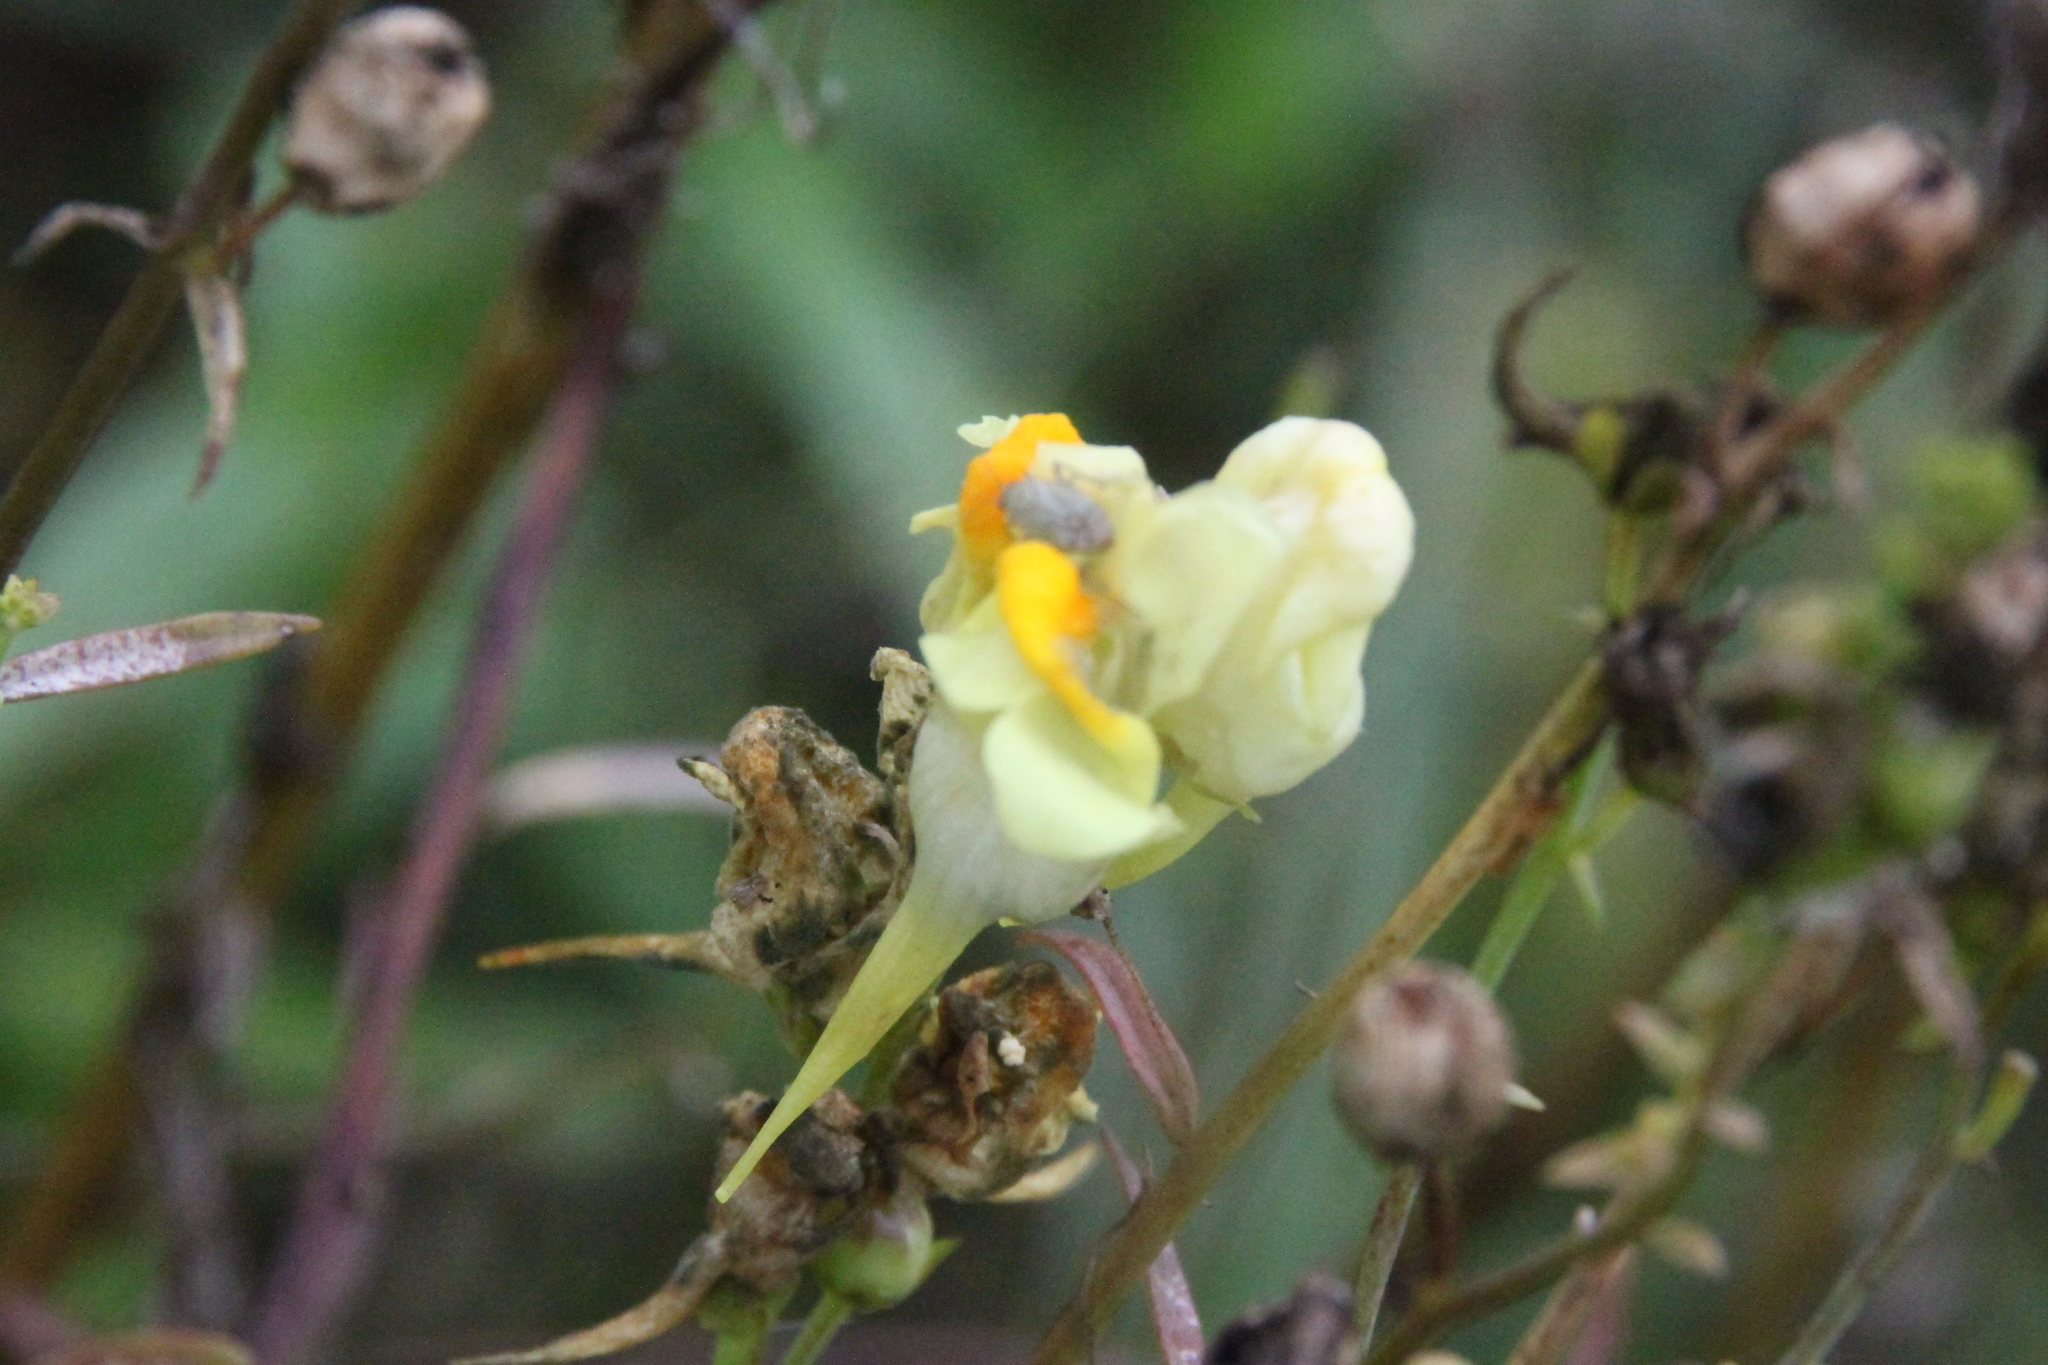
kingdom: Plantae
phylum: Tracheophyta
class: Magnoliopsida
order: Lamiales
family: Plantaginaceae
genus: Linaria
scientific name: Linaria vulgaris
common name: Butter and eggs
